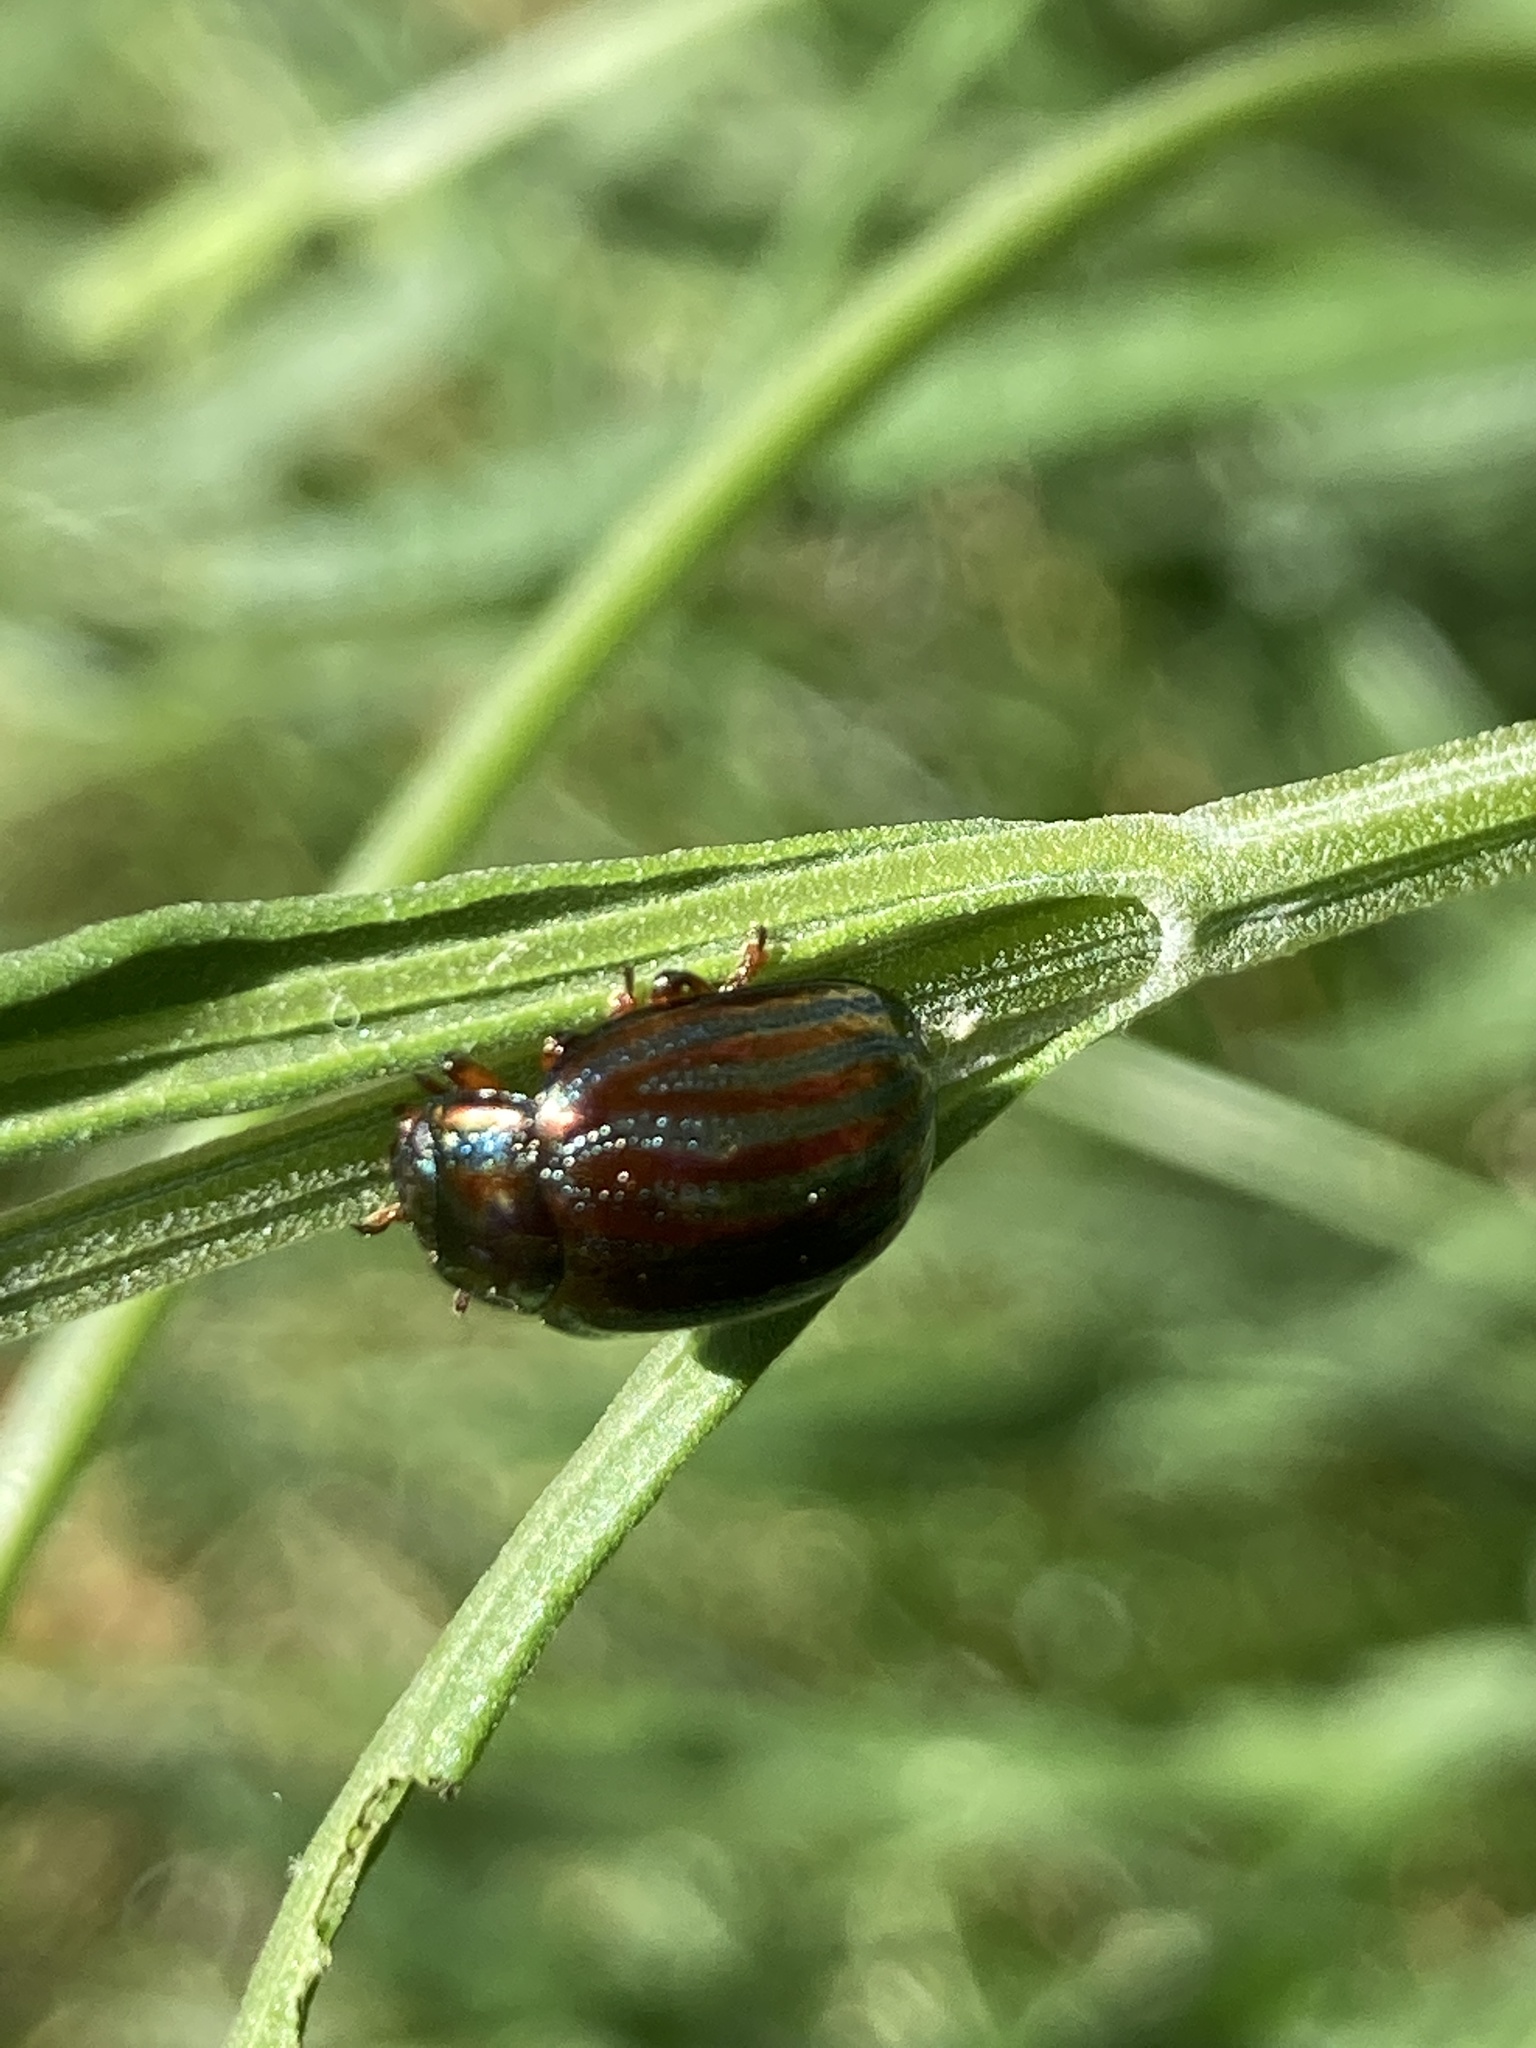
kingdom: Animalia
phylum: Arthropoda
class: Insecta
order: Coleoptera
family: Chrysomelidae
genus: Chrysolina
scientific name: Chrysolina americana
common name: Rosemary beetle
